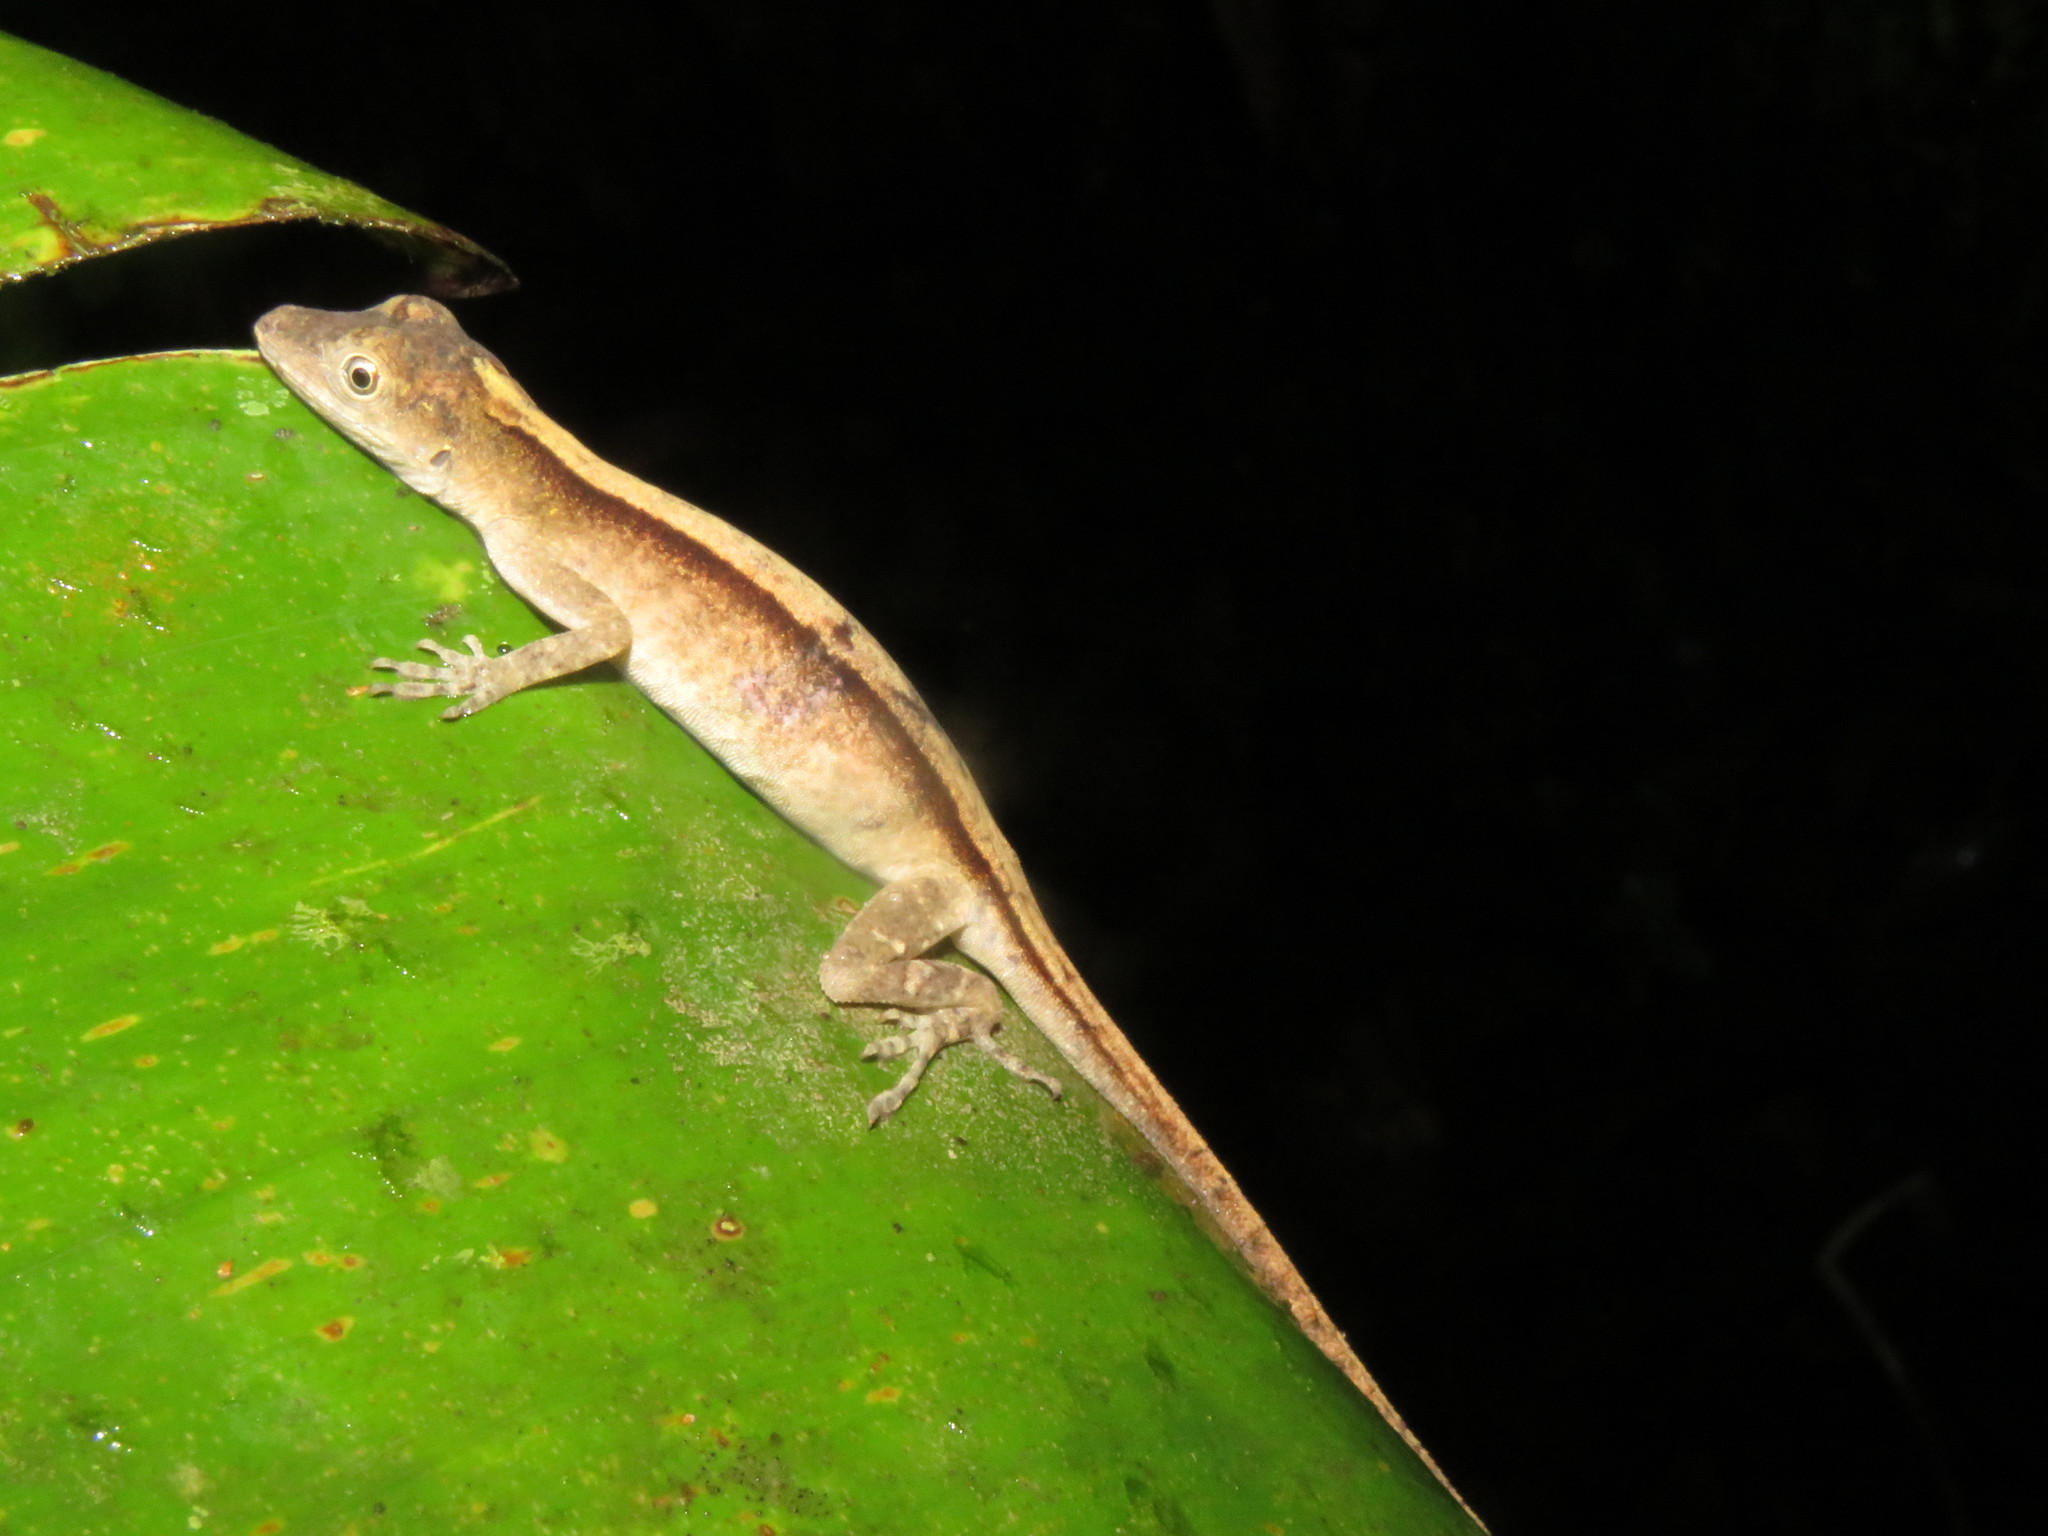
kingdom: Animalia
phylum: Chordata
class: Squamata
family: Dactyloidae
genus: Anolis
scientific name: Anolis fuscoauratus
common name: Brown-eared anole
